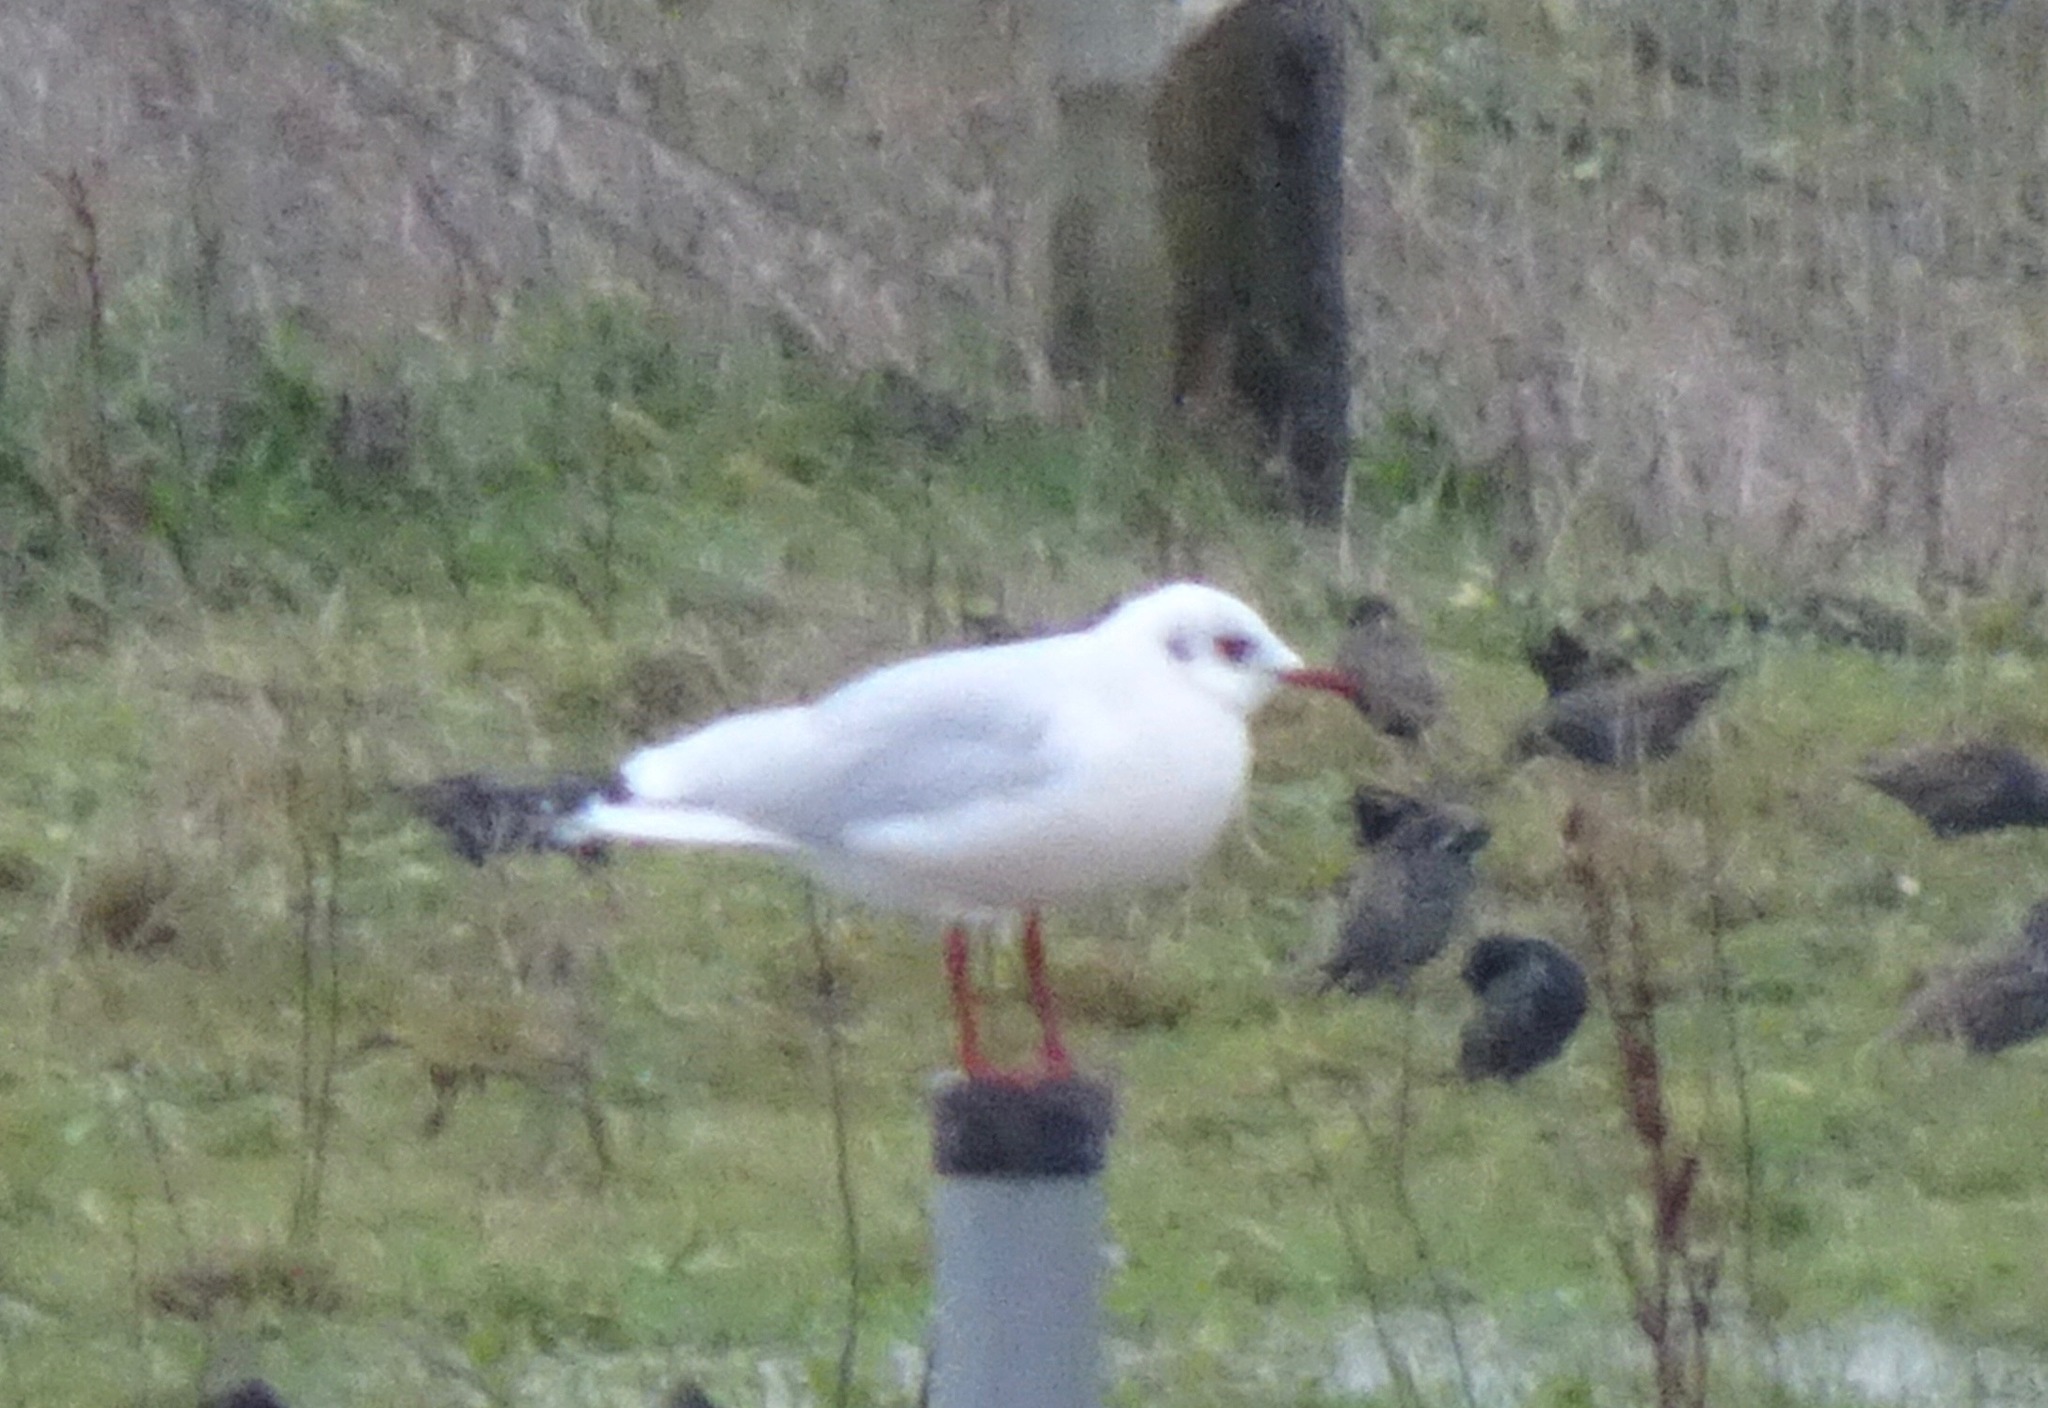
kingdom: Animalia
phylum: Chordata
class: Aves
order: Charadriiformes
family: Laridae
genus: Chroicocephalus
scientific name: Chroicocephalus ridibundus
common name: Black-headed gull
